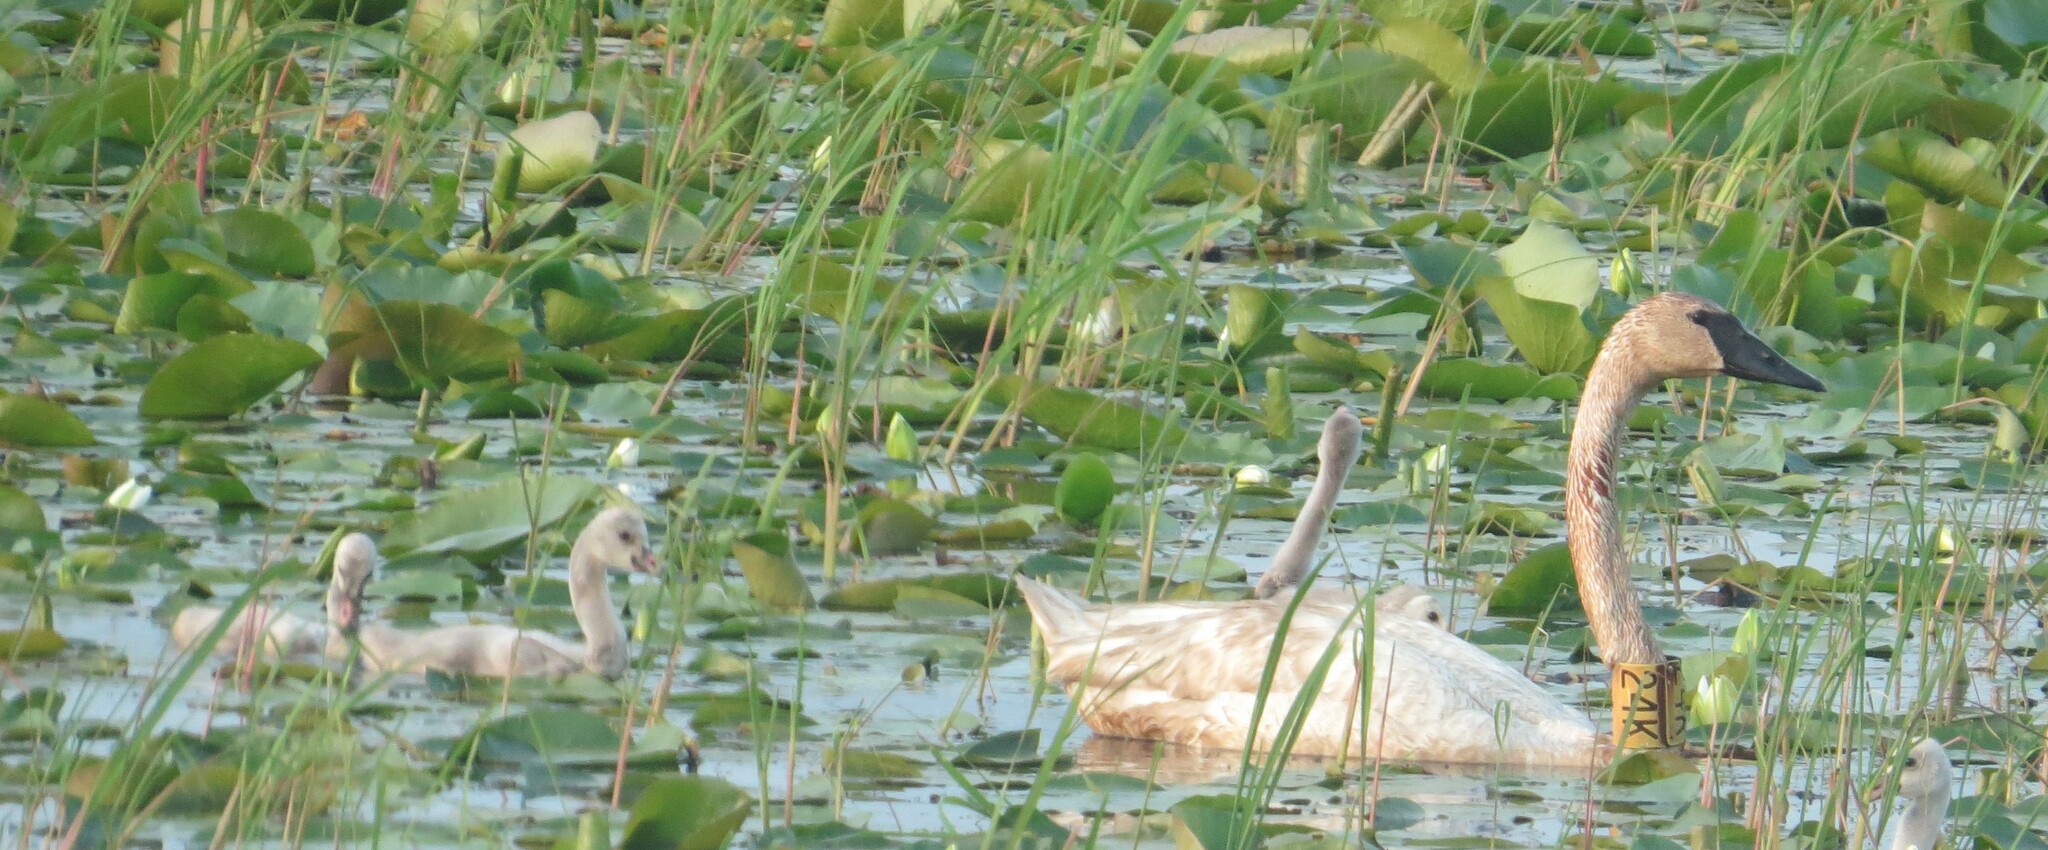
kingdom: Animalia
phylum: Chordata
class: Aves
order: Anseriformes
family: Anatidae
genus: Cygnus
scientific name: Cygnus buccinator
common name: Trumpeter swan
